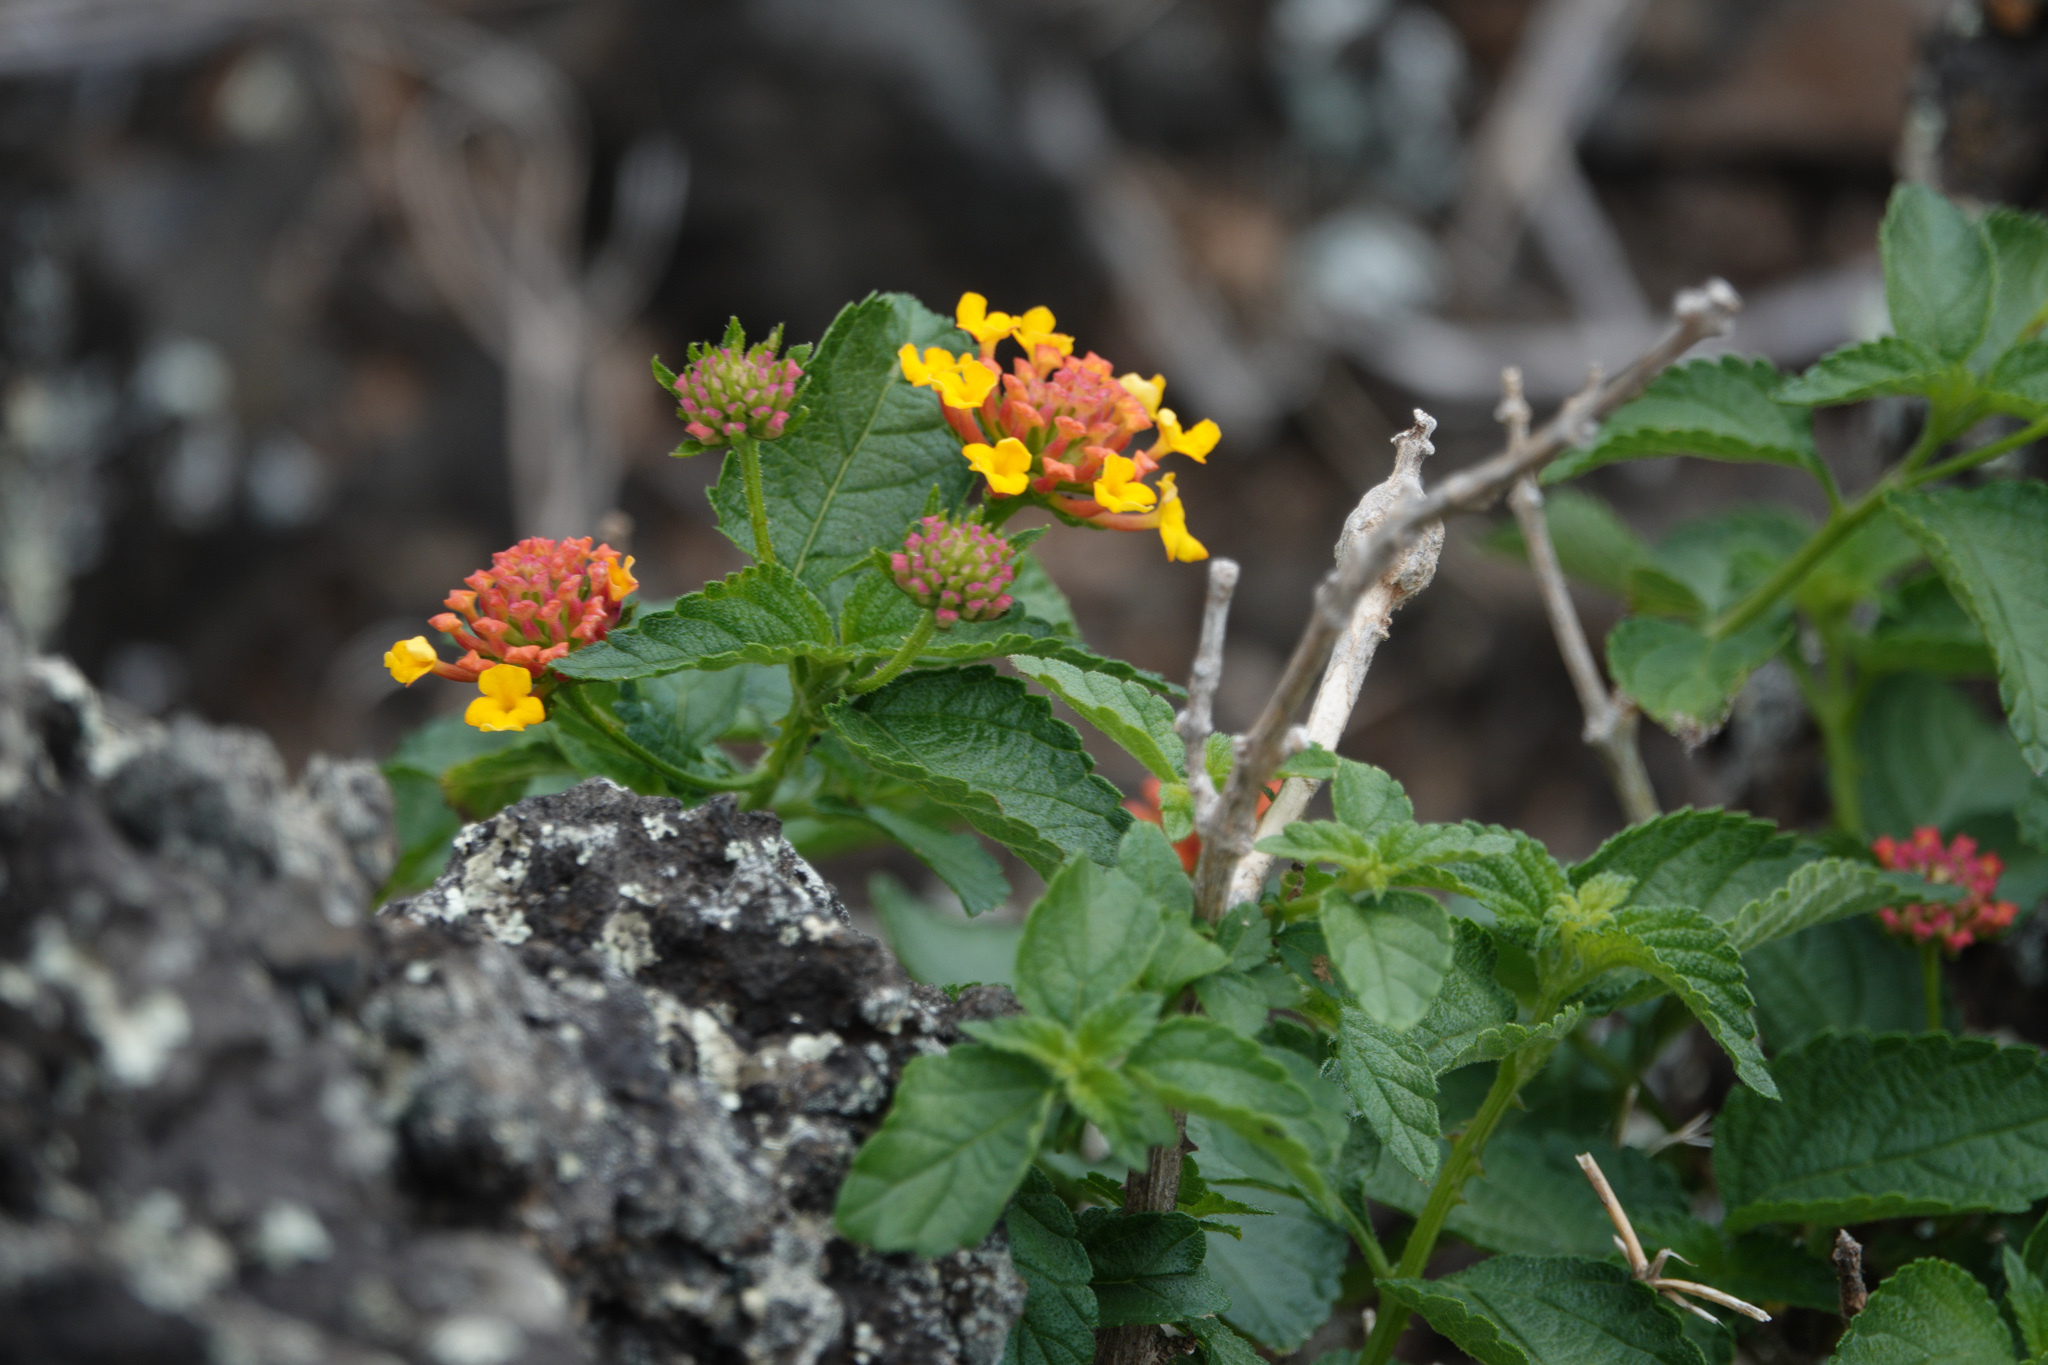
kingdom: Plantae
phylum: Tracheophyta
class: Magnoliopsida
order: Lamiales
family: Verbenaceae
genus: Lantana
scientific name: Lantana camara
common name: Lantana
